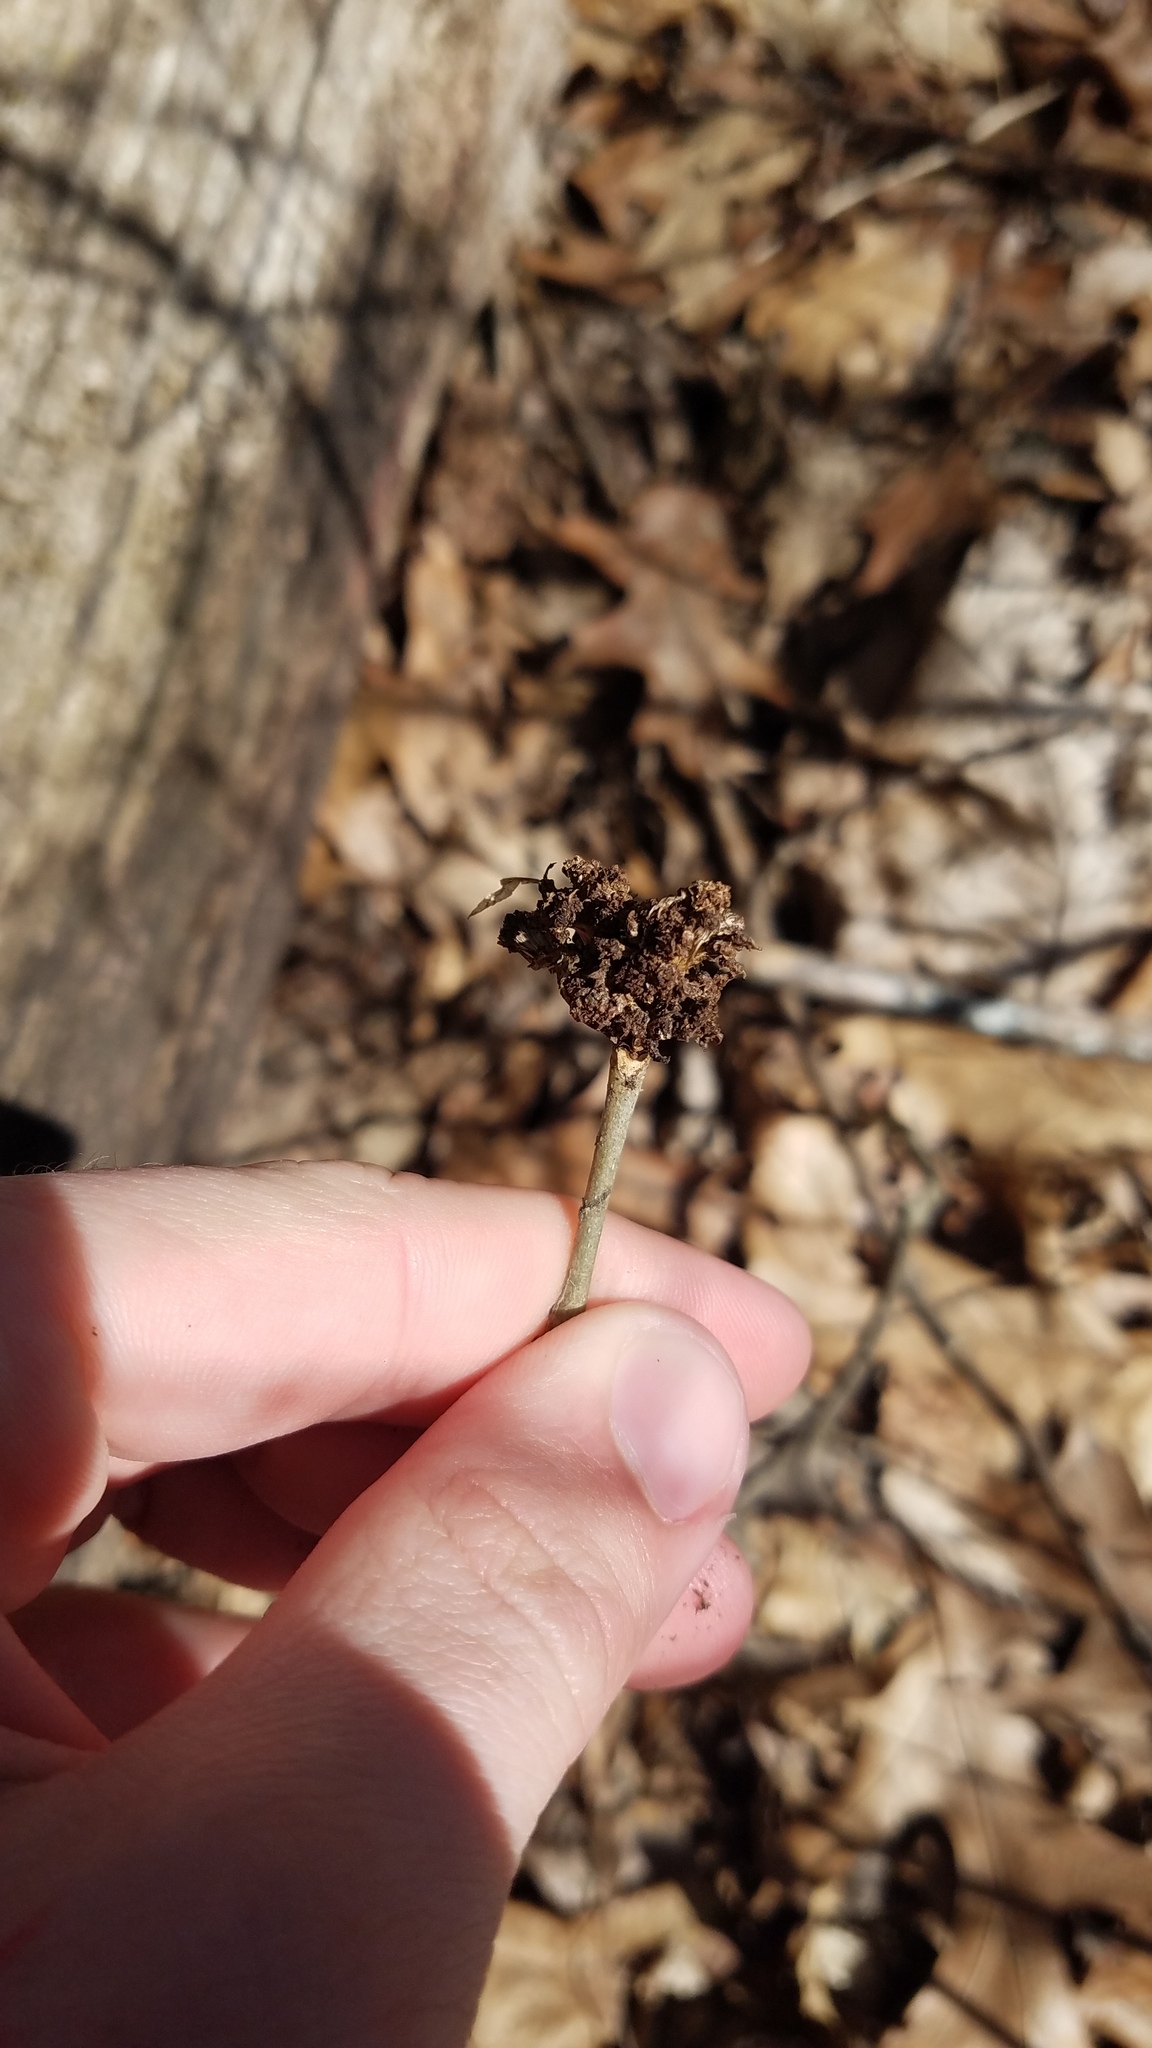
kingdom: Animalia
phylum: Arthropoda
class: Arachnida
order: Trombidiformes
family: Eriophyidae
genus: Aceria
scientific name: Aceria fraxiniflora
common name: Ash flower gall mite
